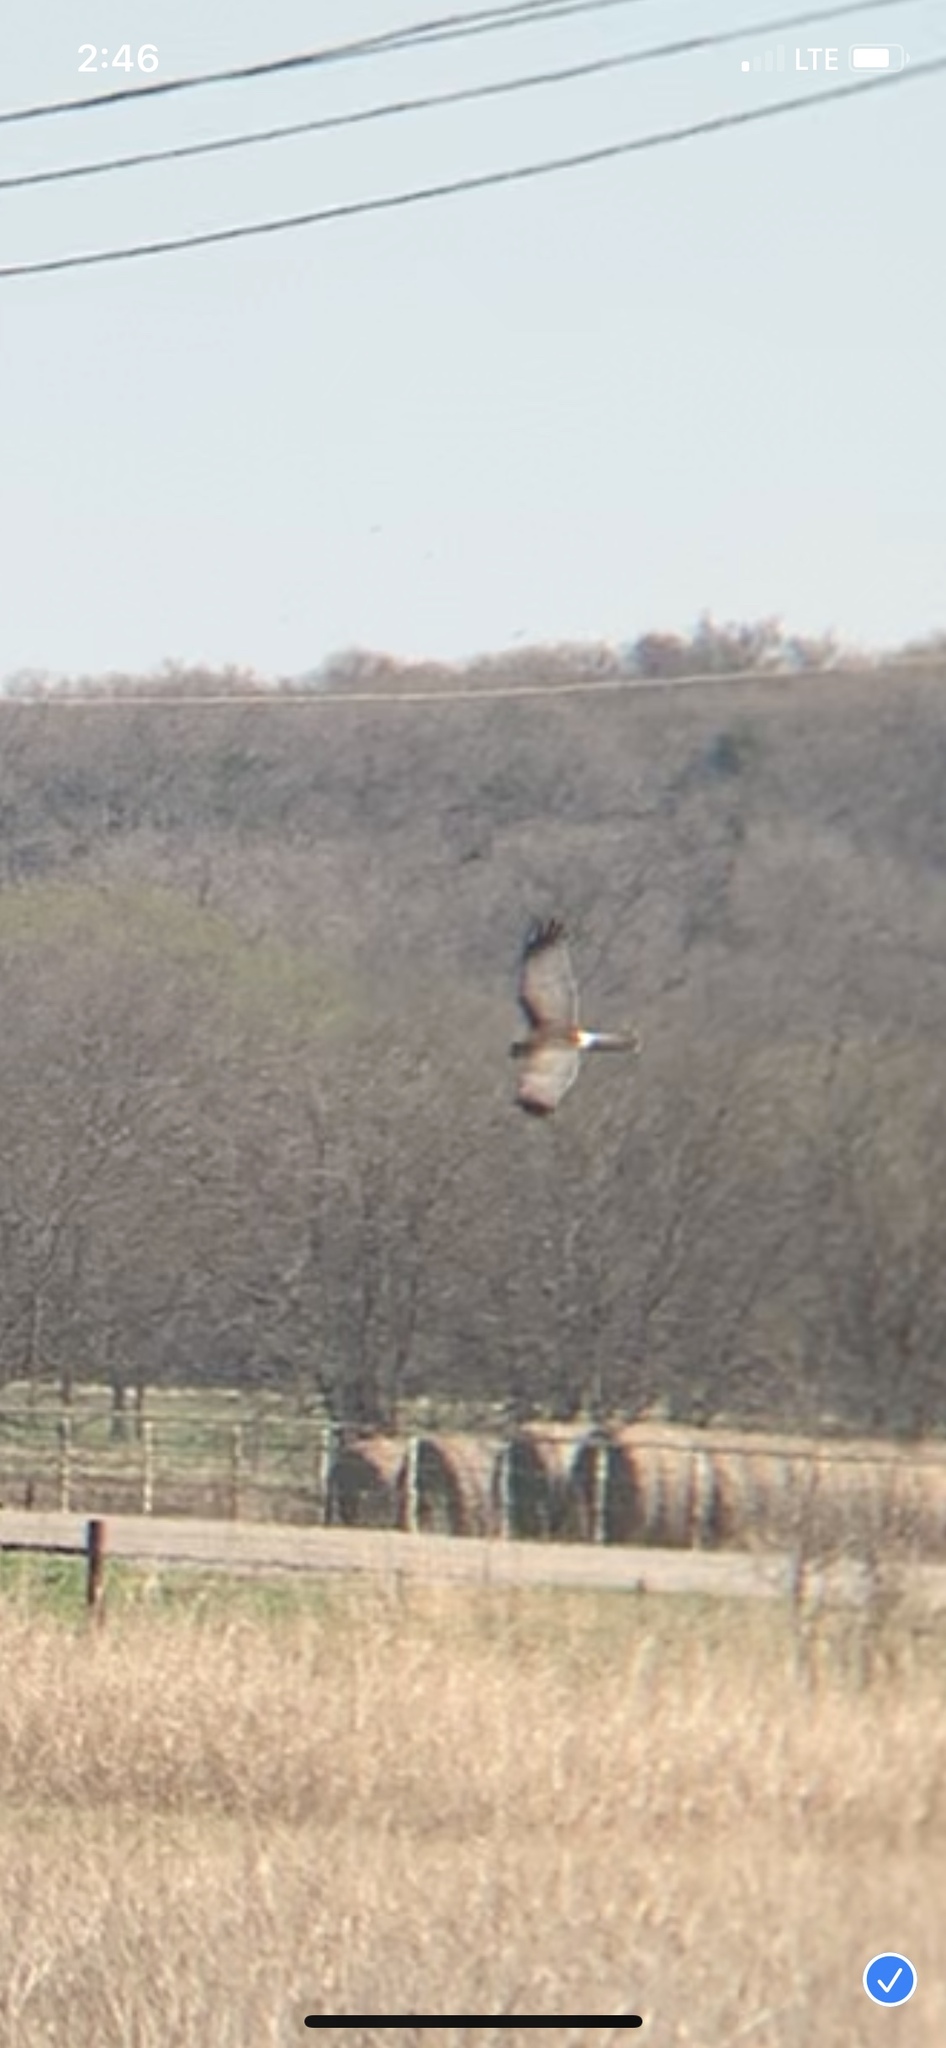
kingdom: Animalia
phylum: Chordata
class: Aves
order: Accipitriformes
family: Accipitridae
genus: Circus
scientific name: Circus cyaneus
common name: Hen harrier
